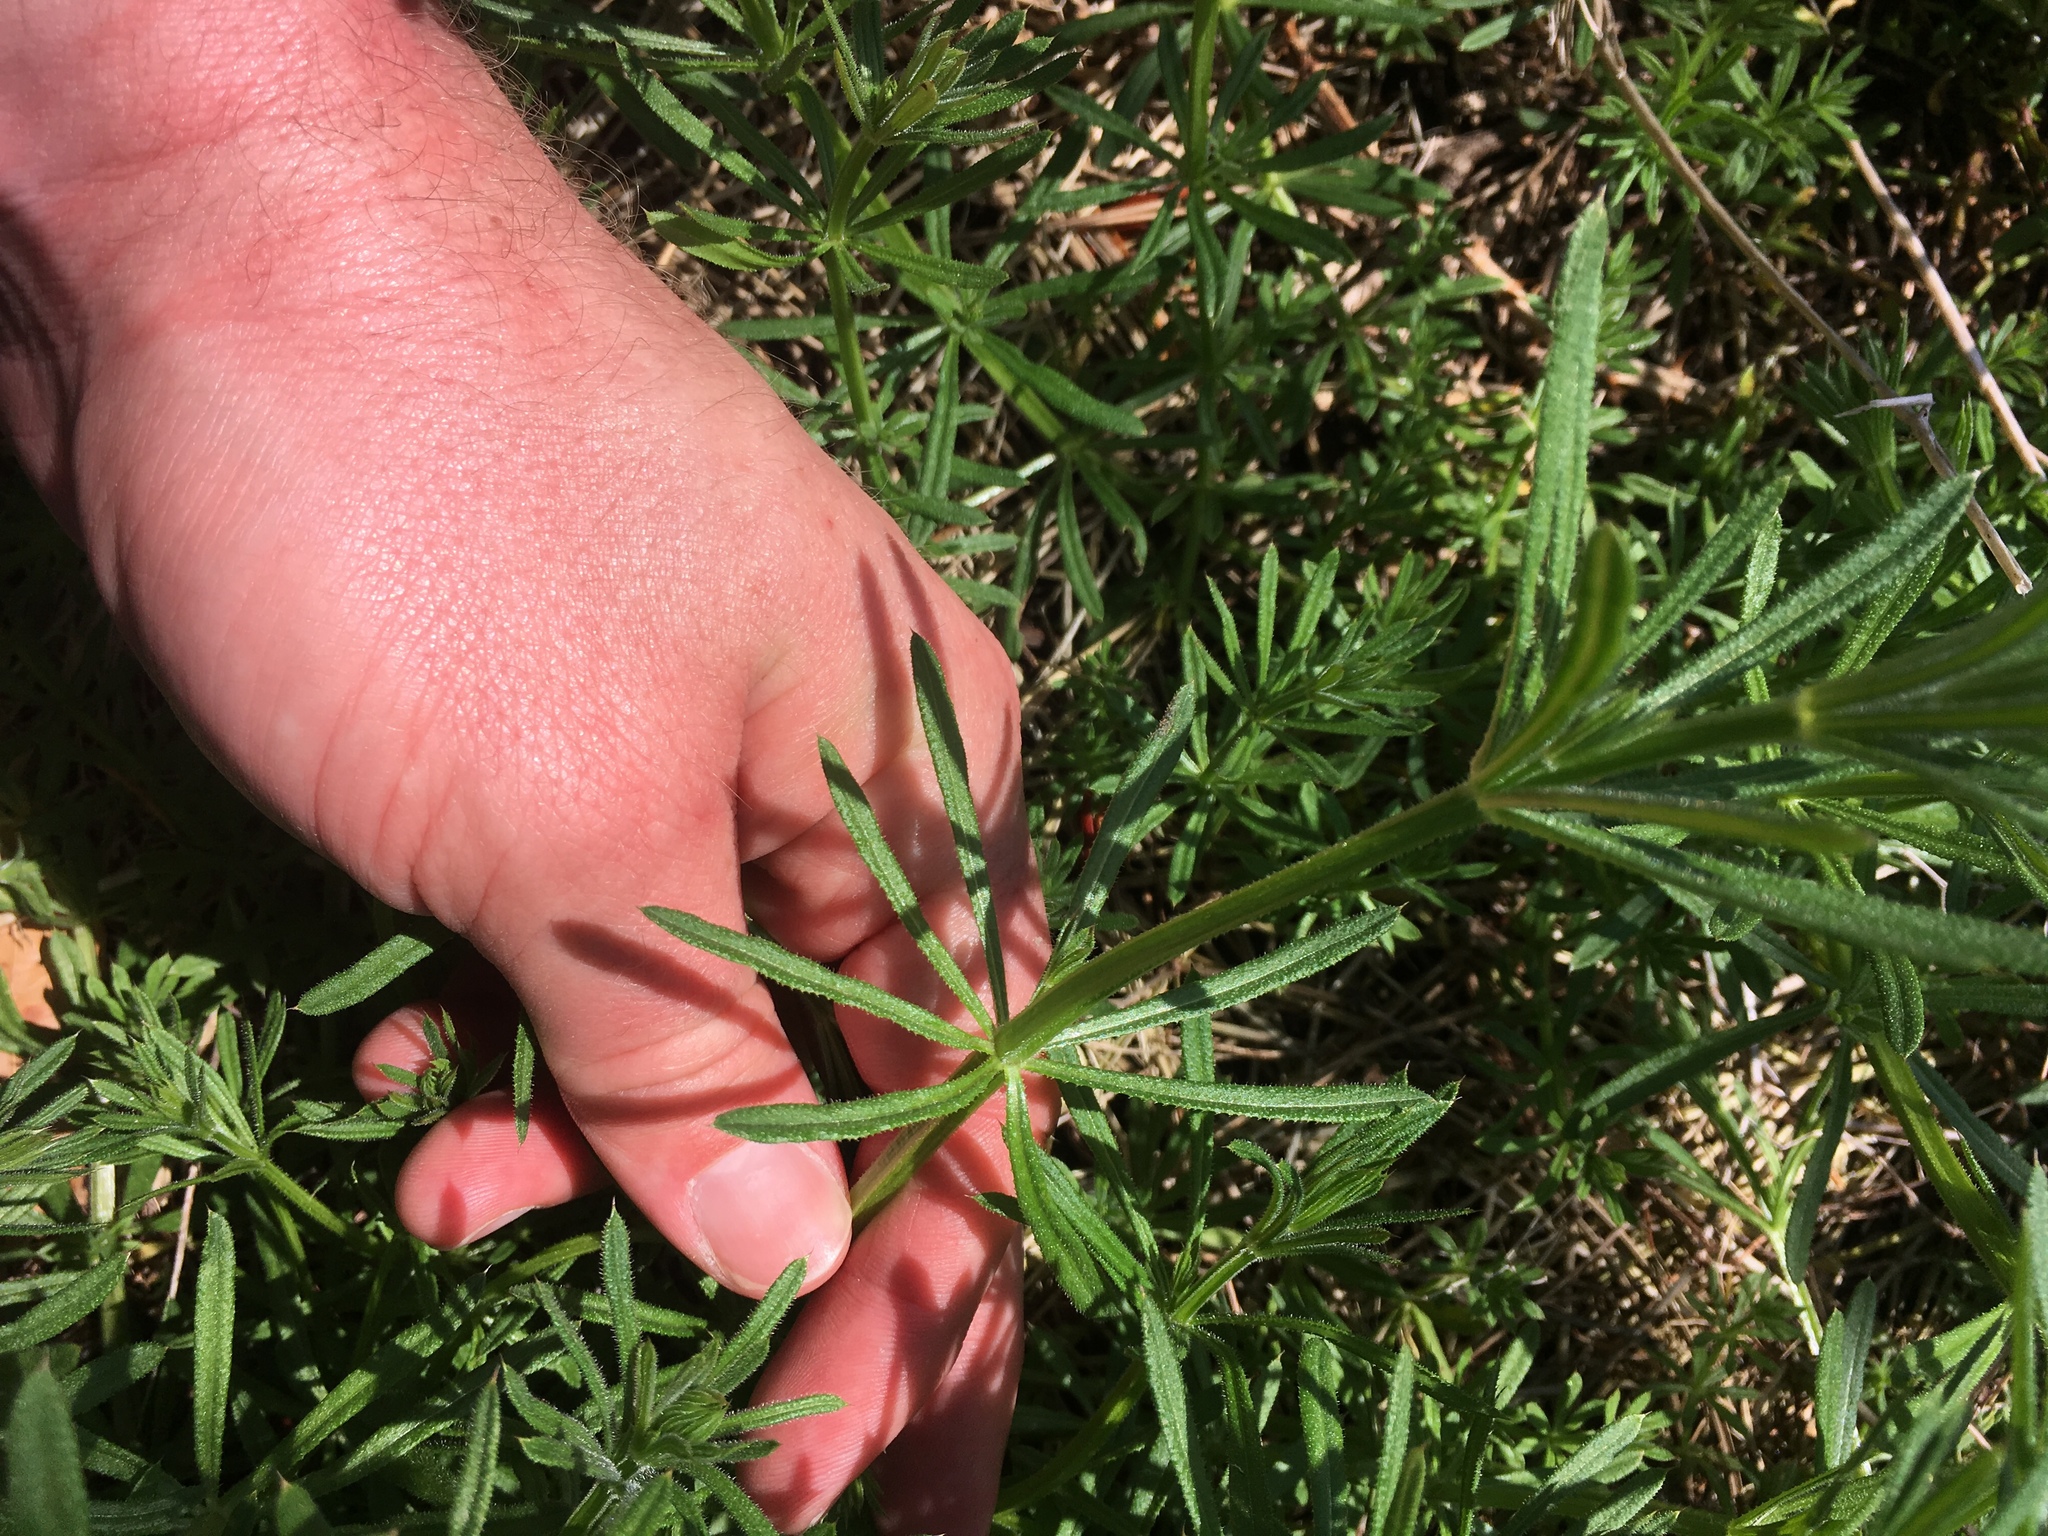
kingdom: Plantae
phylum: Tracheophyta
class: Magnoliopsida
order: Gentianales
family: Rubiaceae
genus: Galium
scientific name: Galium aparine
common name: Cleavers
